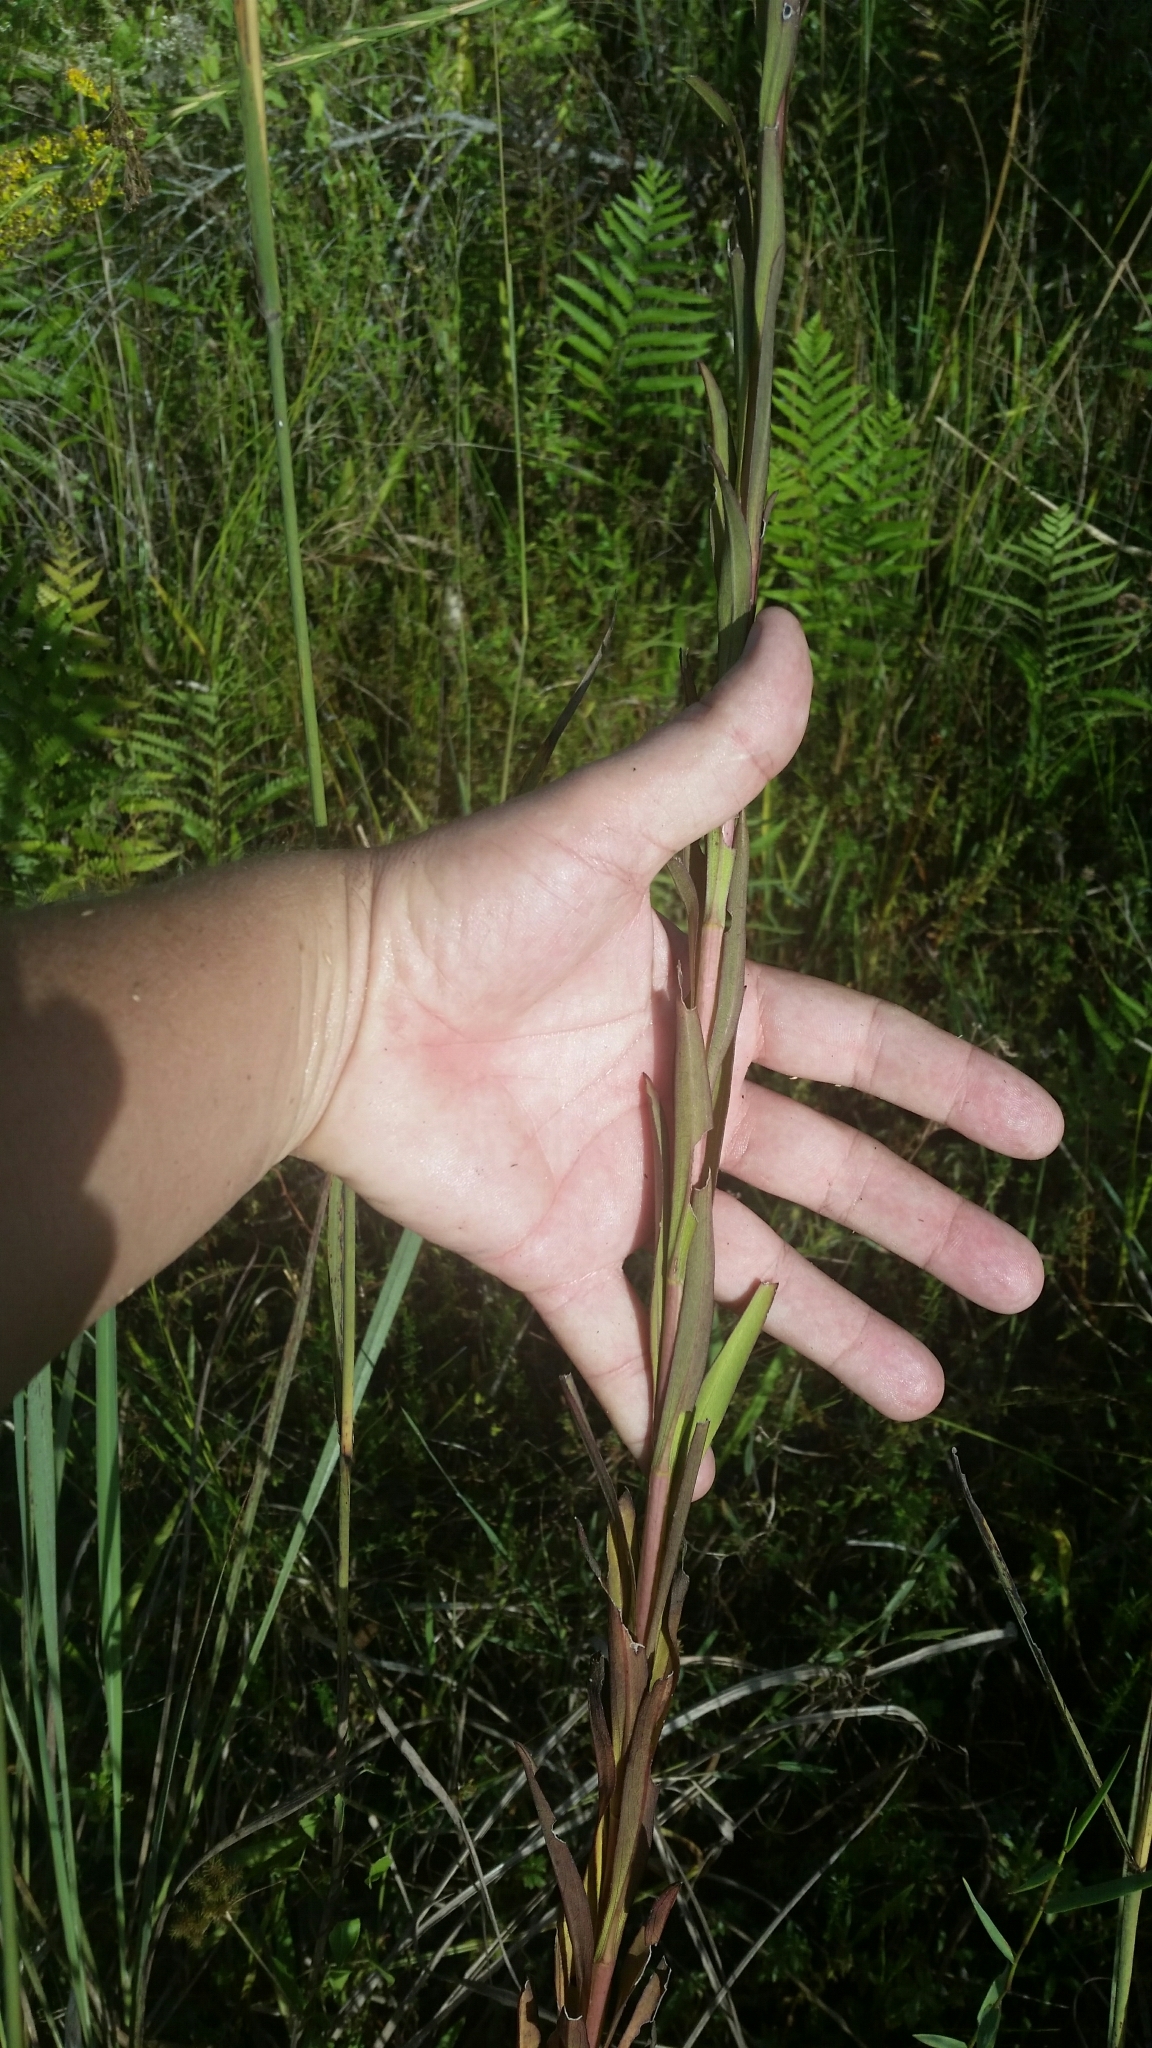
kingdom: Plantae
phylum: Tracheophyta
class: Magnoliopsida
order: Asterales
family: Asteraceae
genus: Solidago
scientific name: Solidago mexicana
